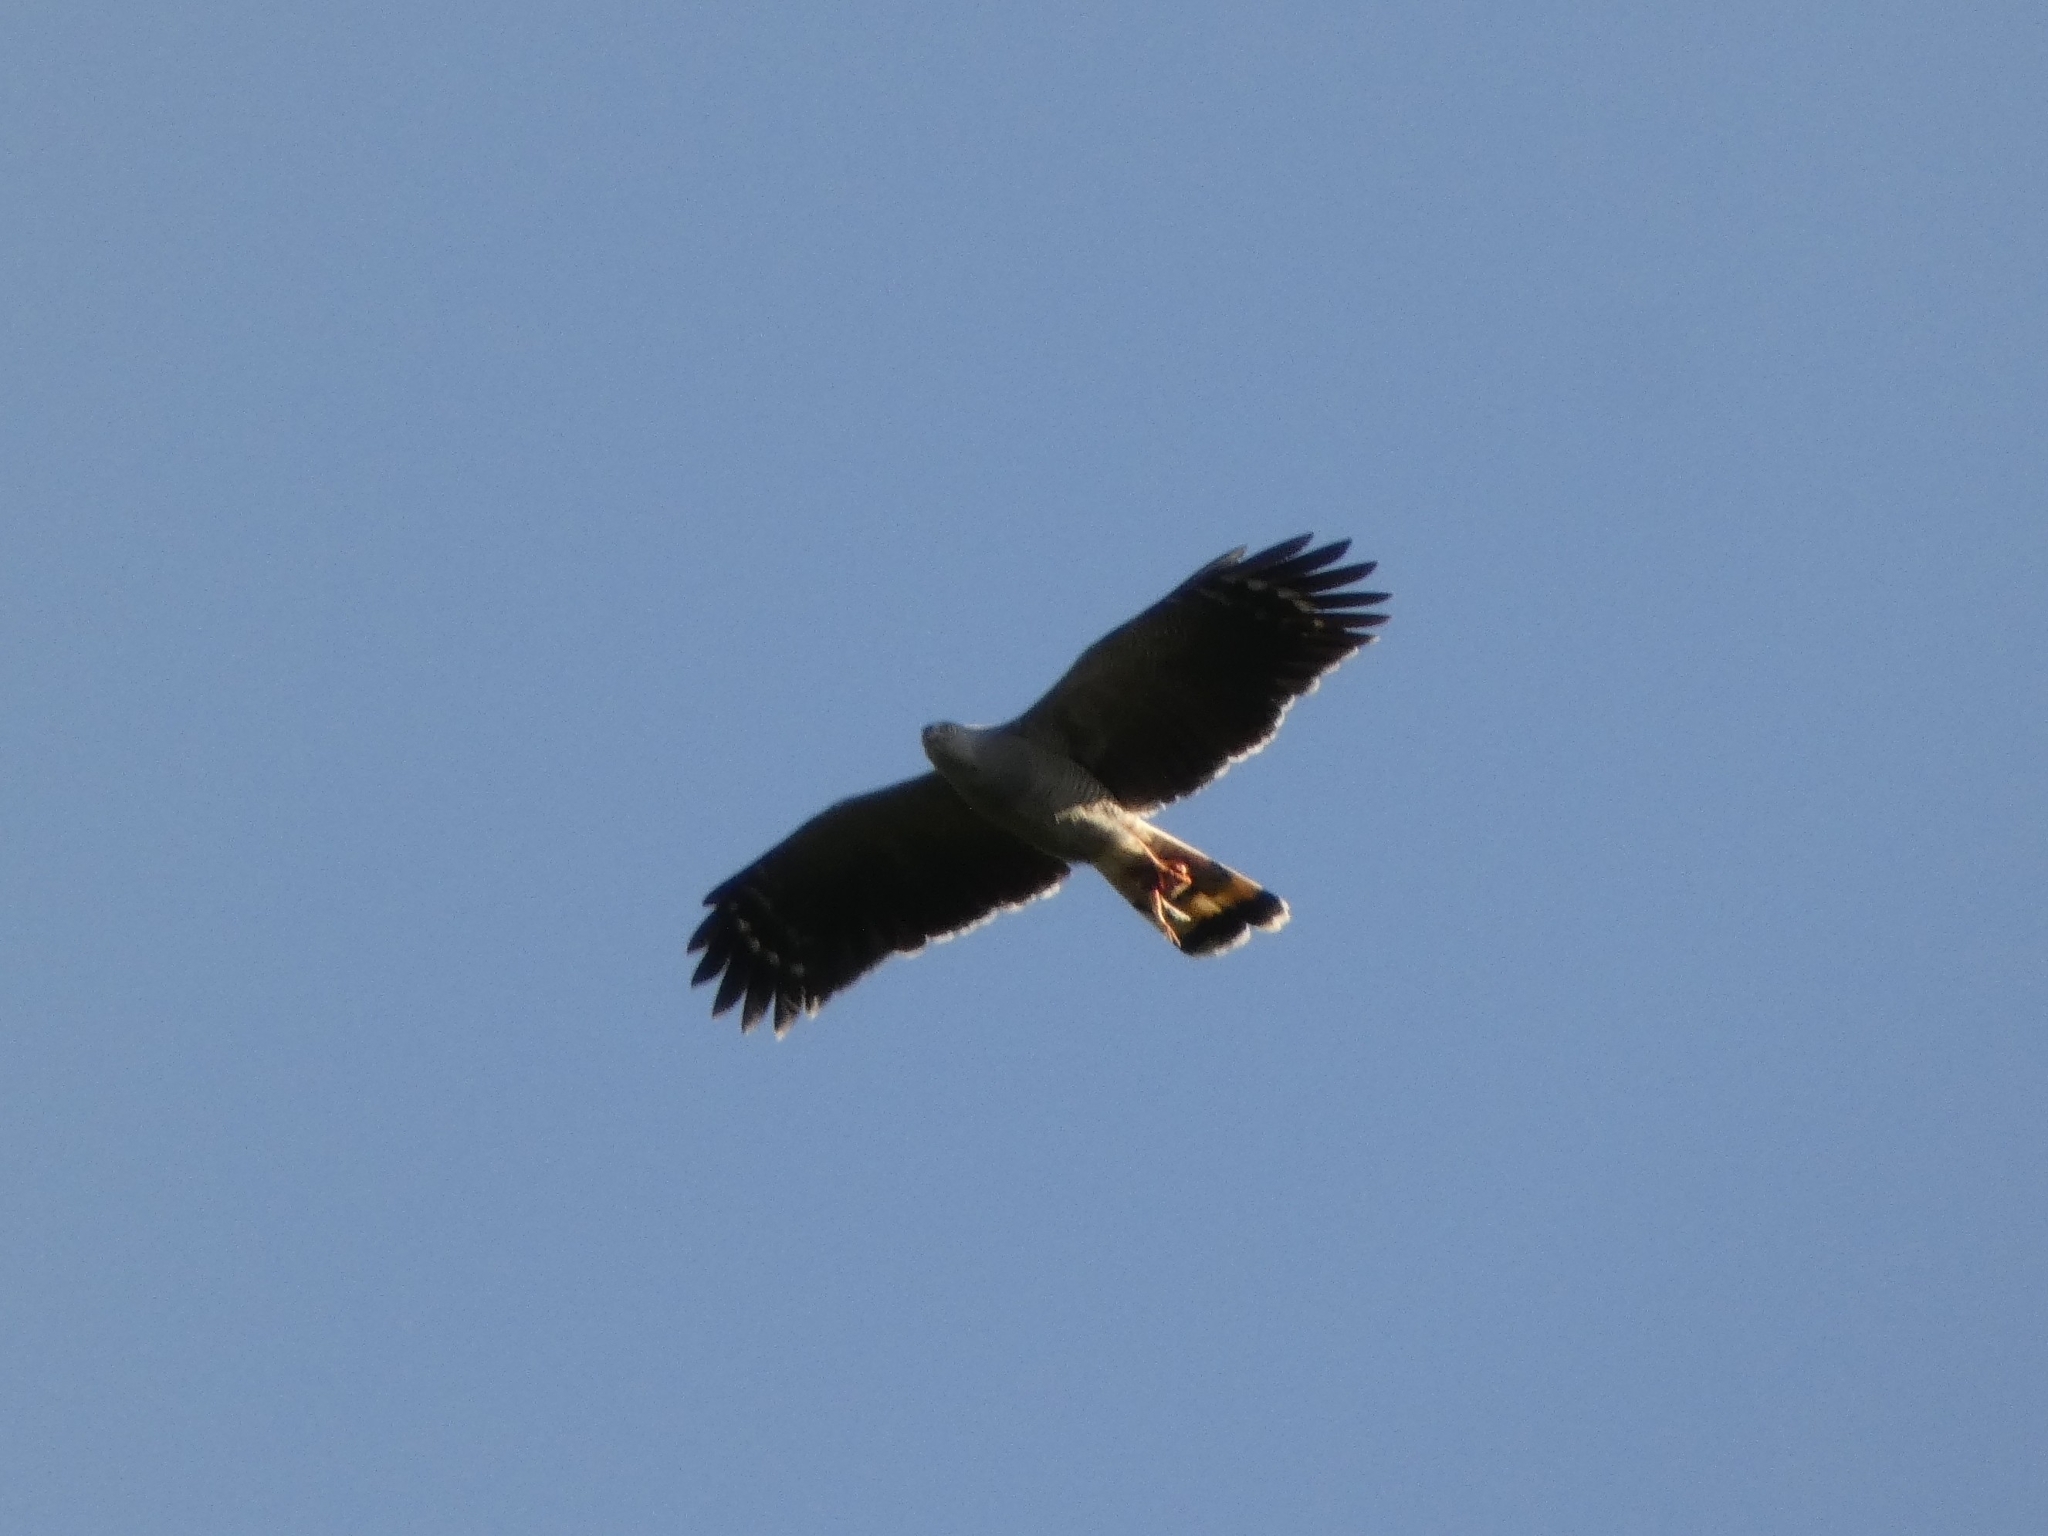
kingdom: Animalia
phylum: Chordata
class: Aves
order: Accipitriformes
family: Accipitridae
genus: Geranospiza
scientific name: Geranospiza caerulescens
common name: Crane hawk
